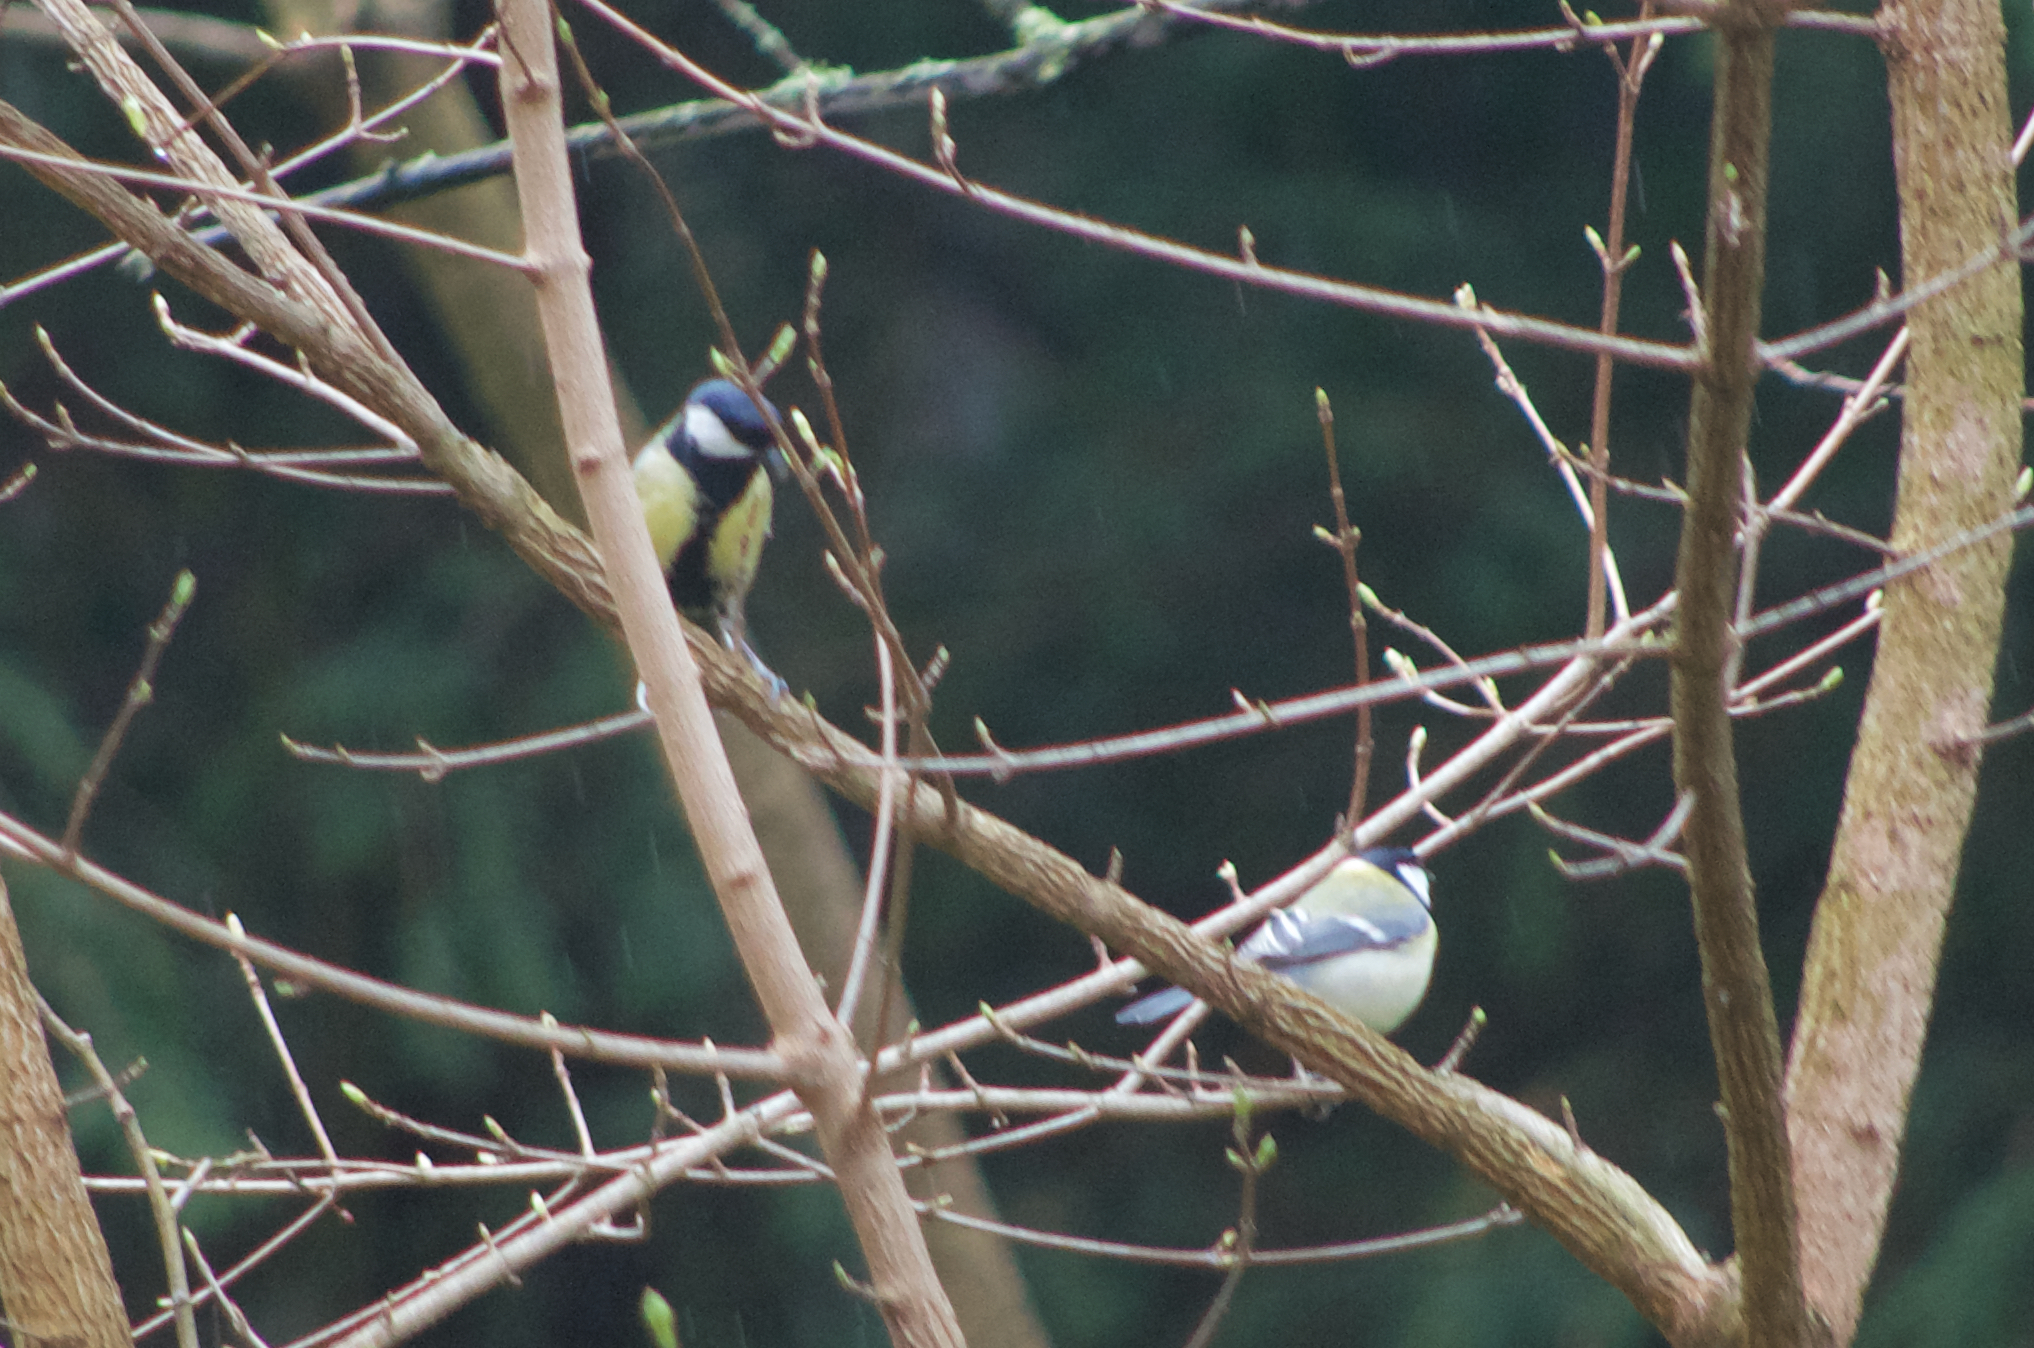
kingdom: Animalia
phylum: Chordata
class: Aves
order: Passeriformes
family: Paridae
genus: Parus
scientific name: Parus major
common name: Great tit
